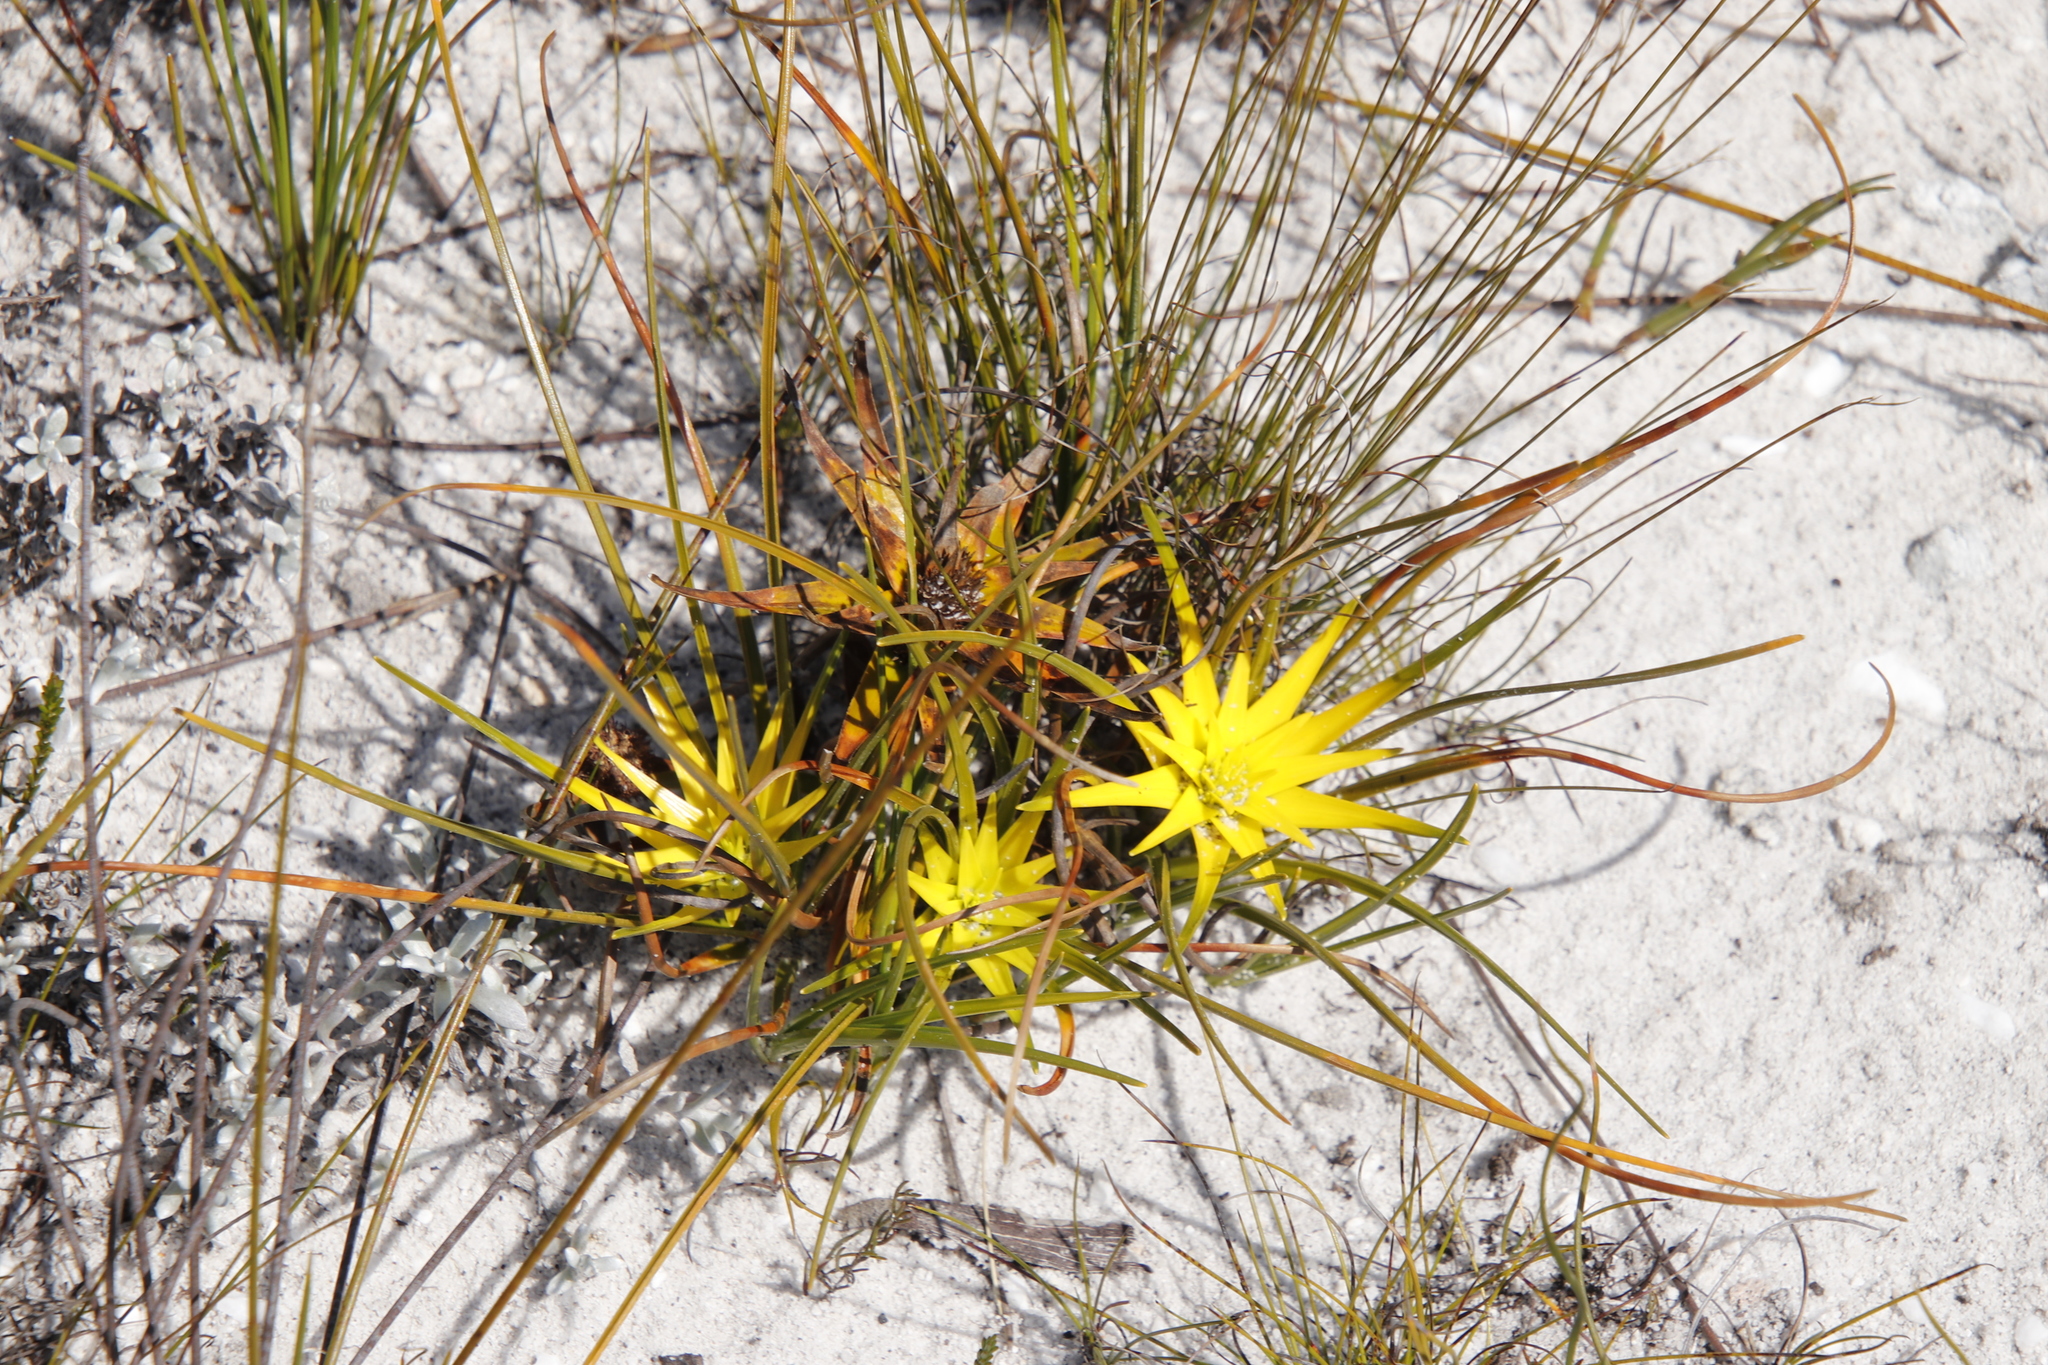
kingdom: Plantae
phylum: Tracheophyta
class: Liliopsida
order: Poales
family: Cyperaceae
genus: Ficinia
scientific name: Ficinia radiata
